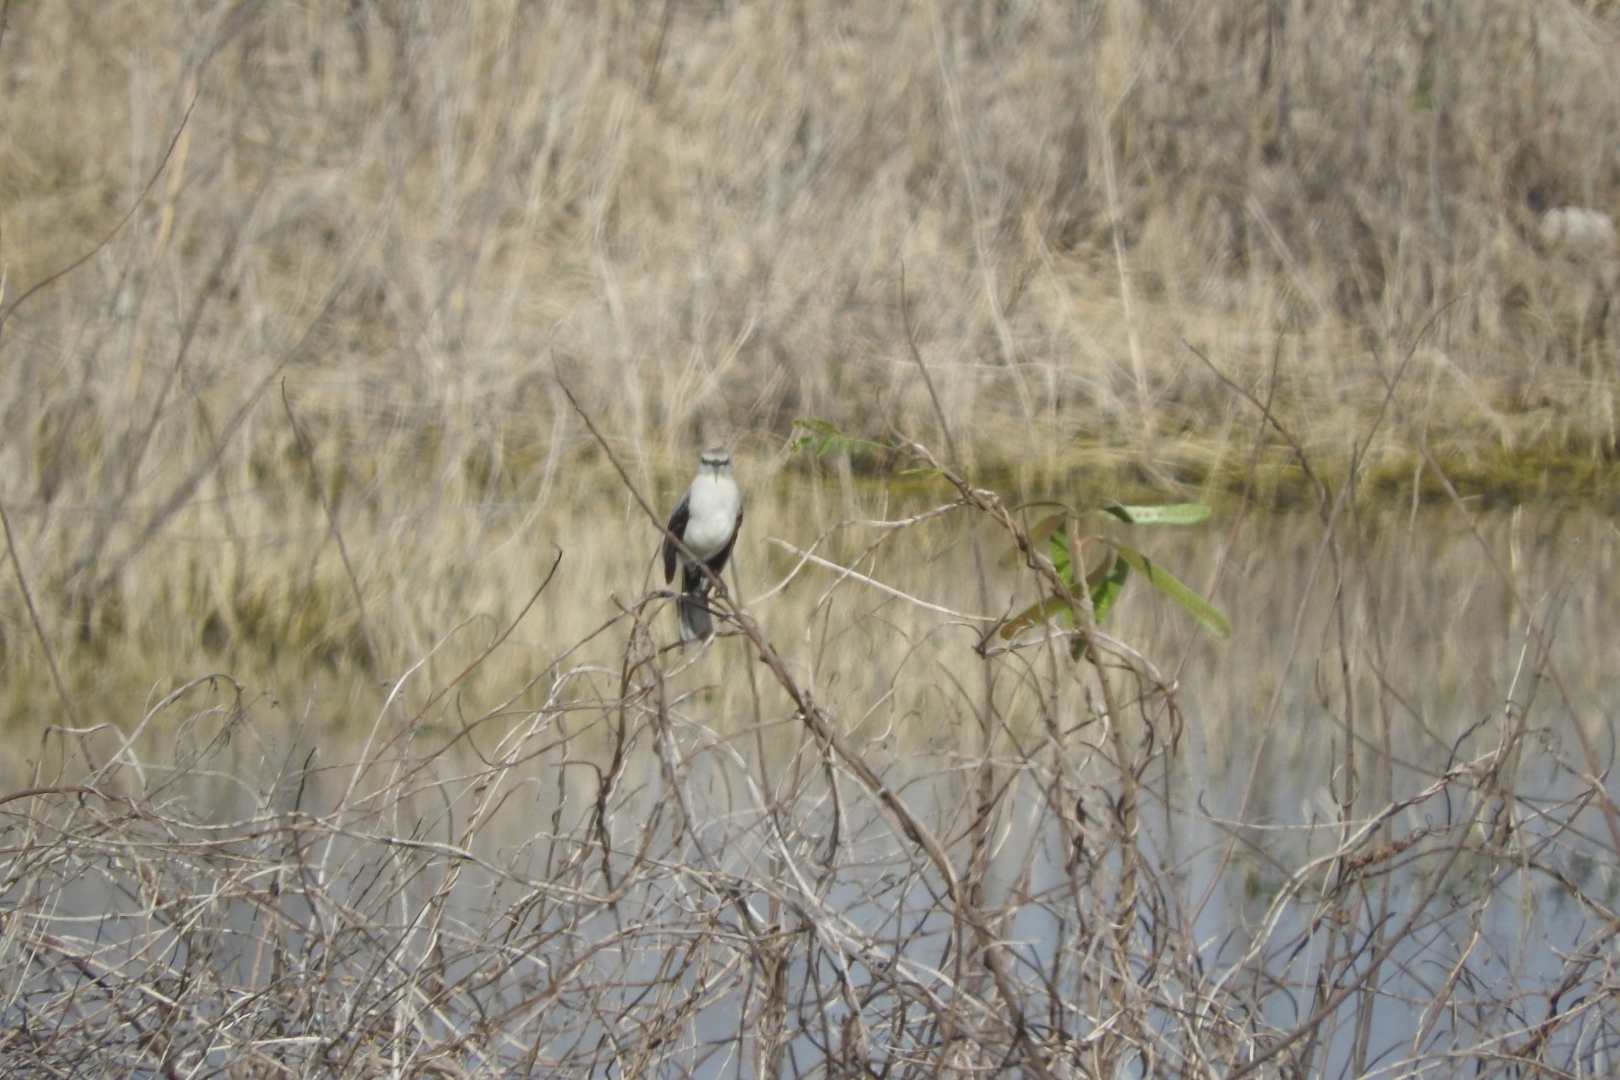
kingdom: Animalia
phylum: Chordata
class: Aves
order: Passeriformes
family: Mimidae
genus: Mimus
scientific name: Mimus gilvus
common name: Tropical mockingbird
